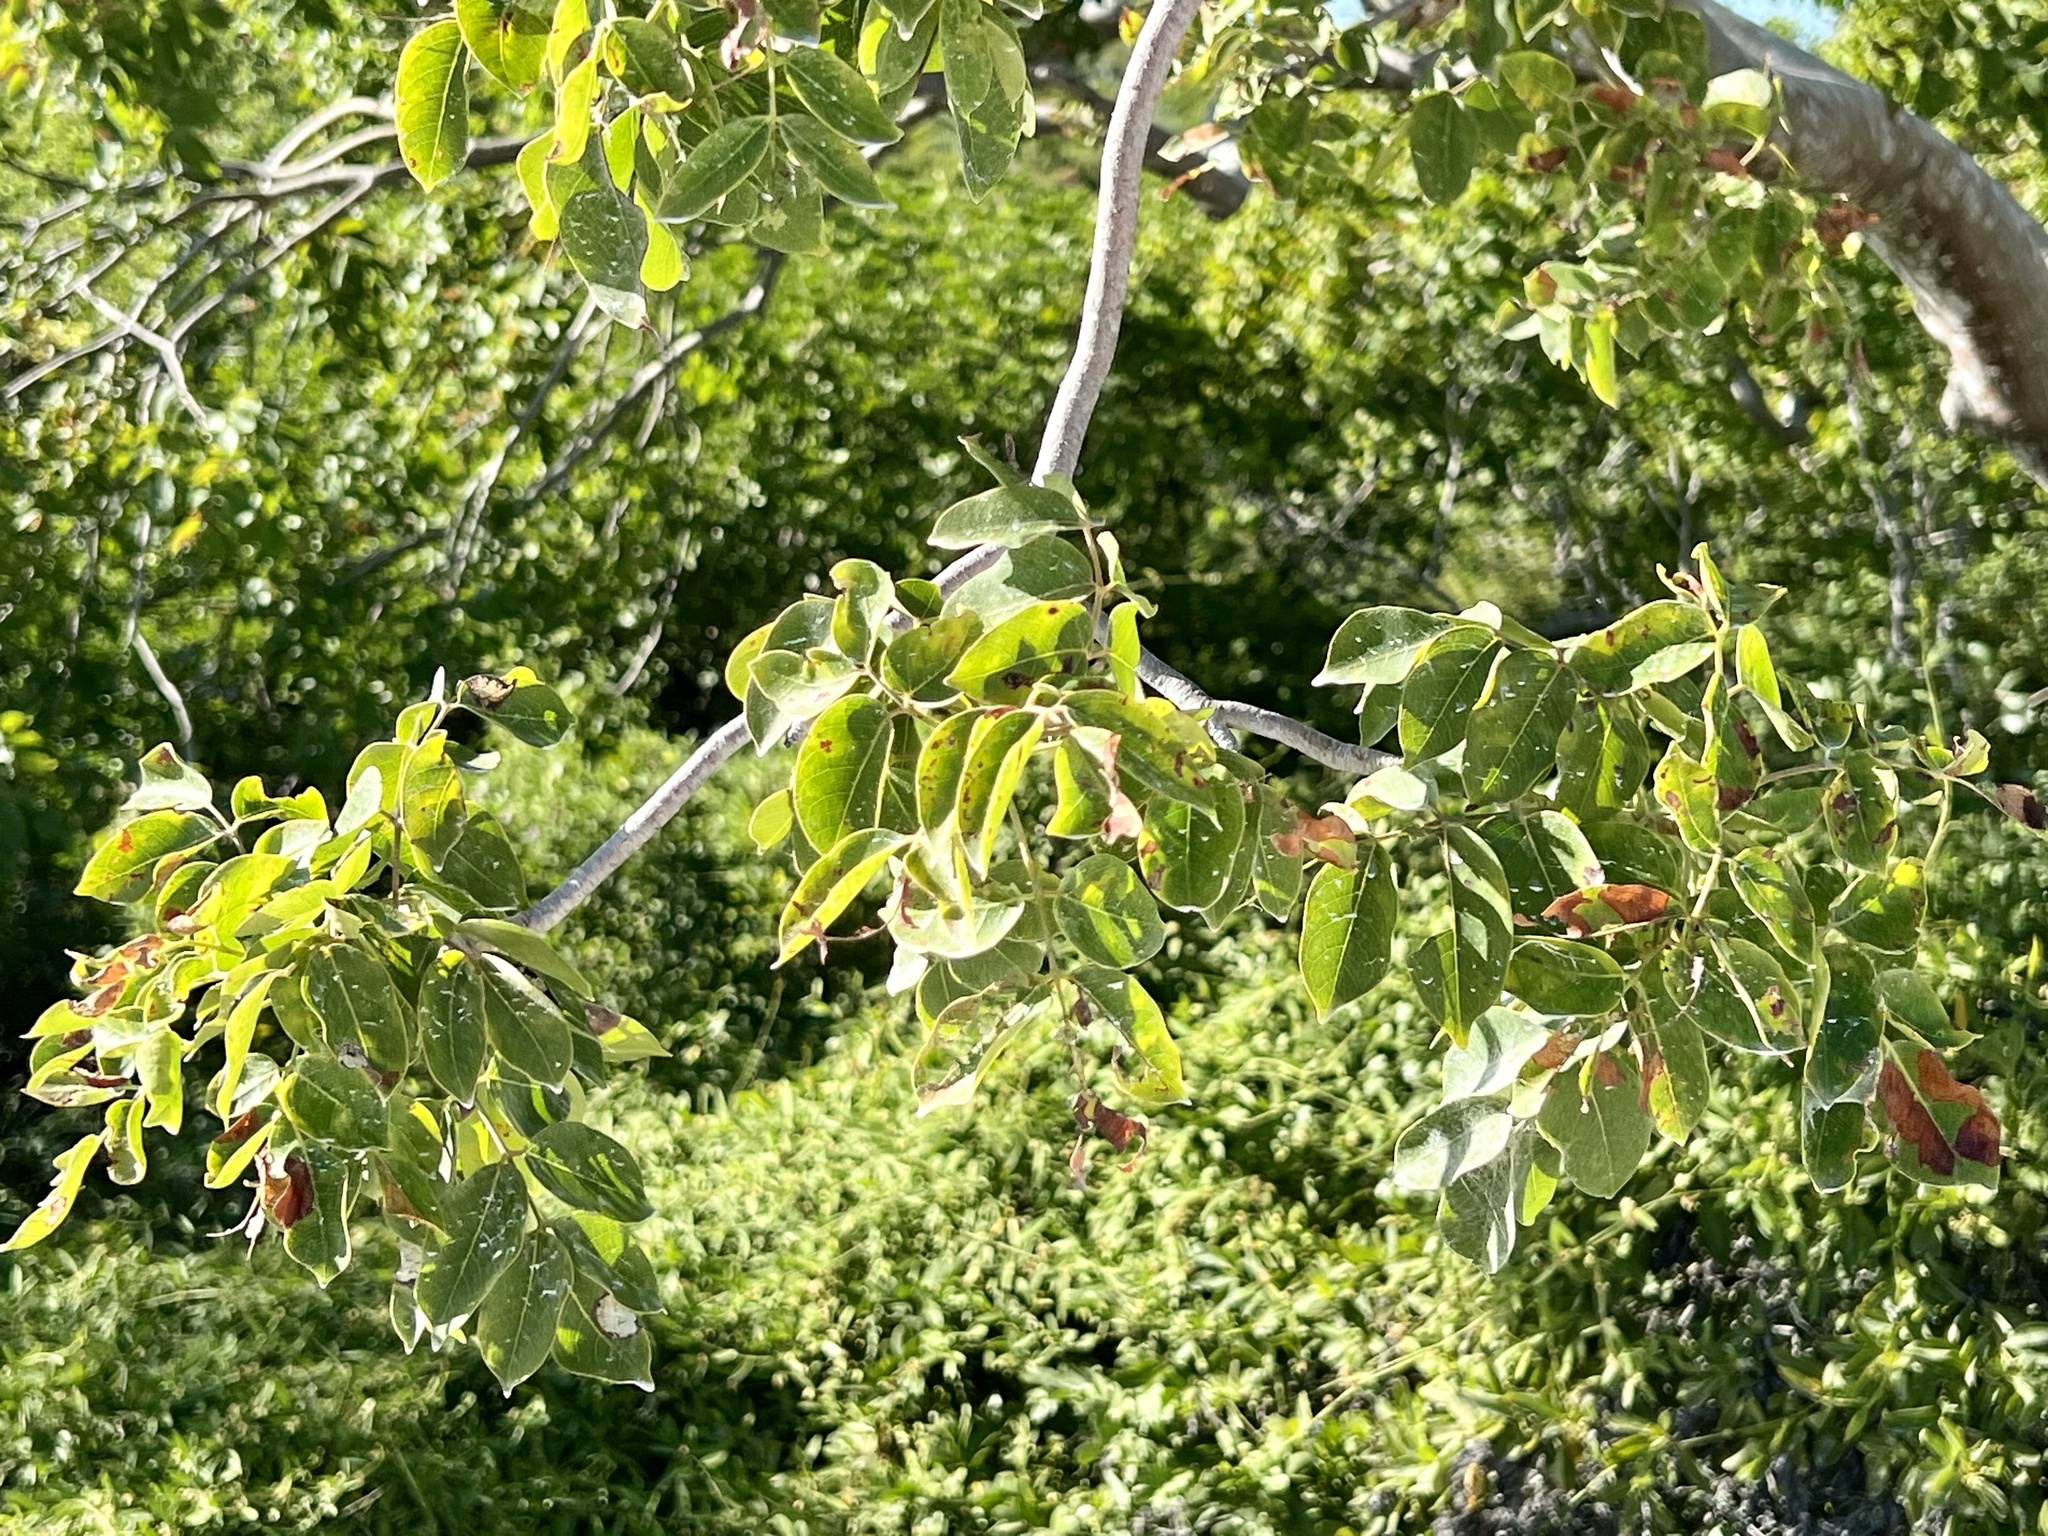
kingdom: Plantae
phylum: Tracheophyta
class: Magnoliopsida
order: Sapindales
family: Burseraceae
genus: Bursera
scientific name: Bursera simaruba
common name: Turpentine tree
